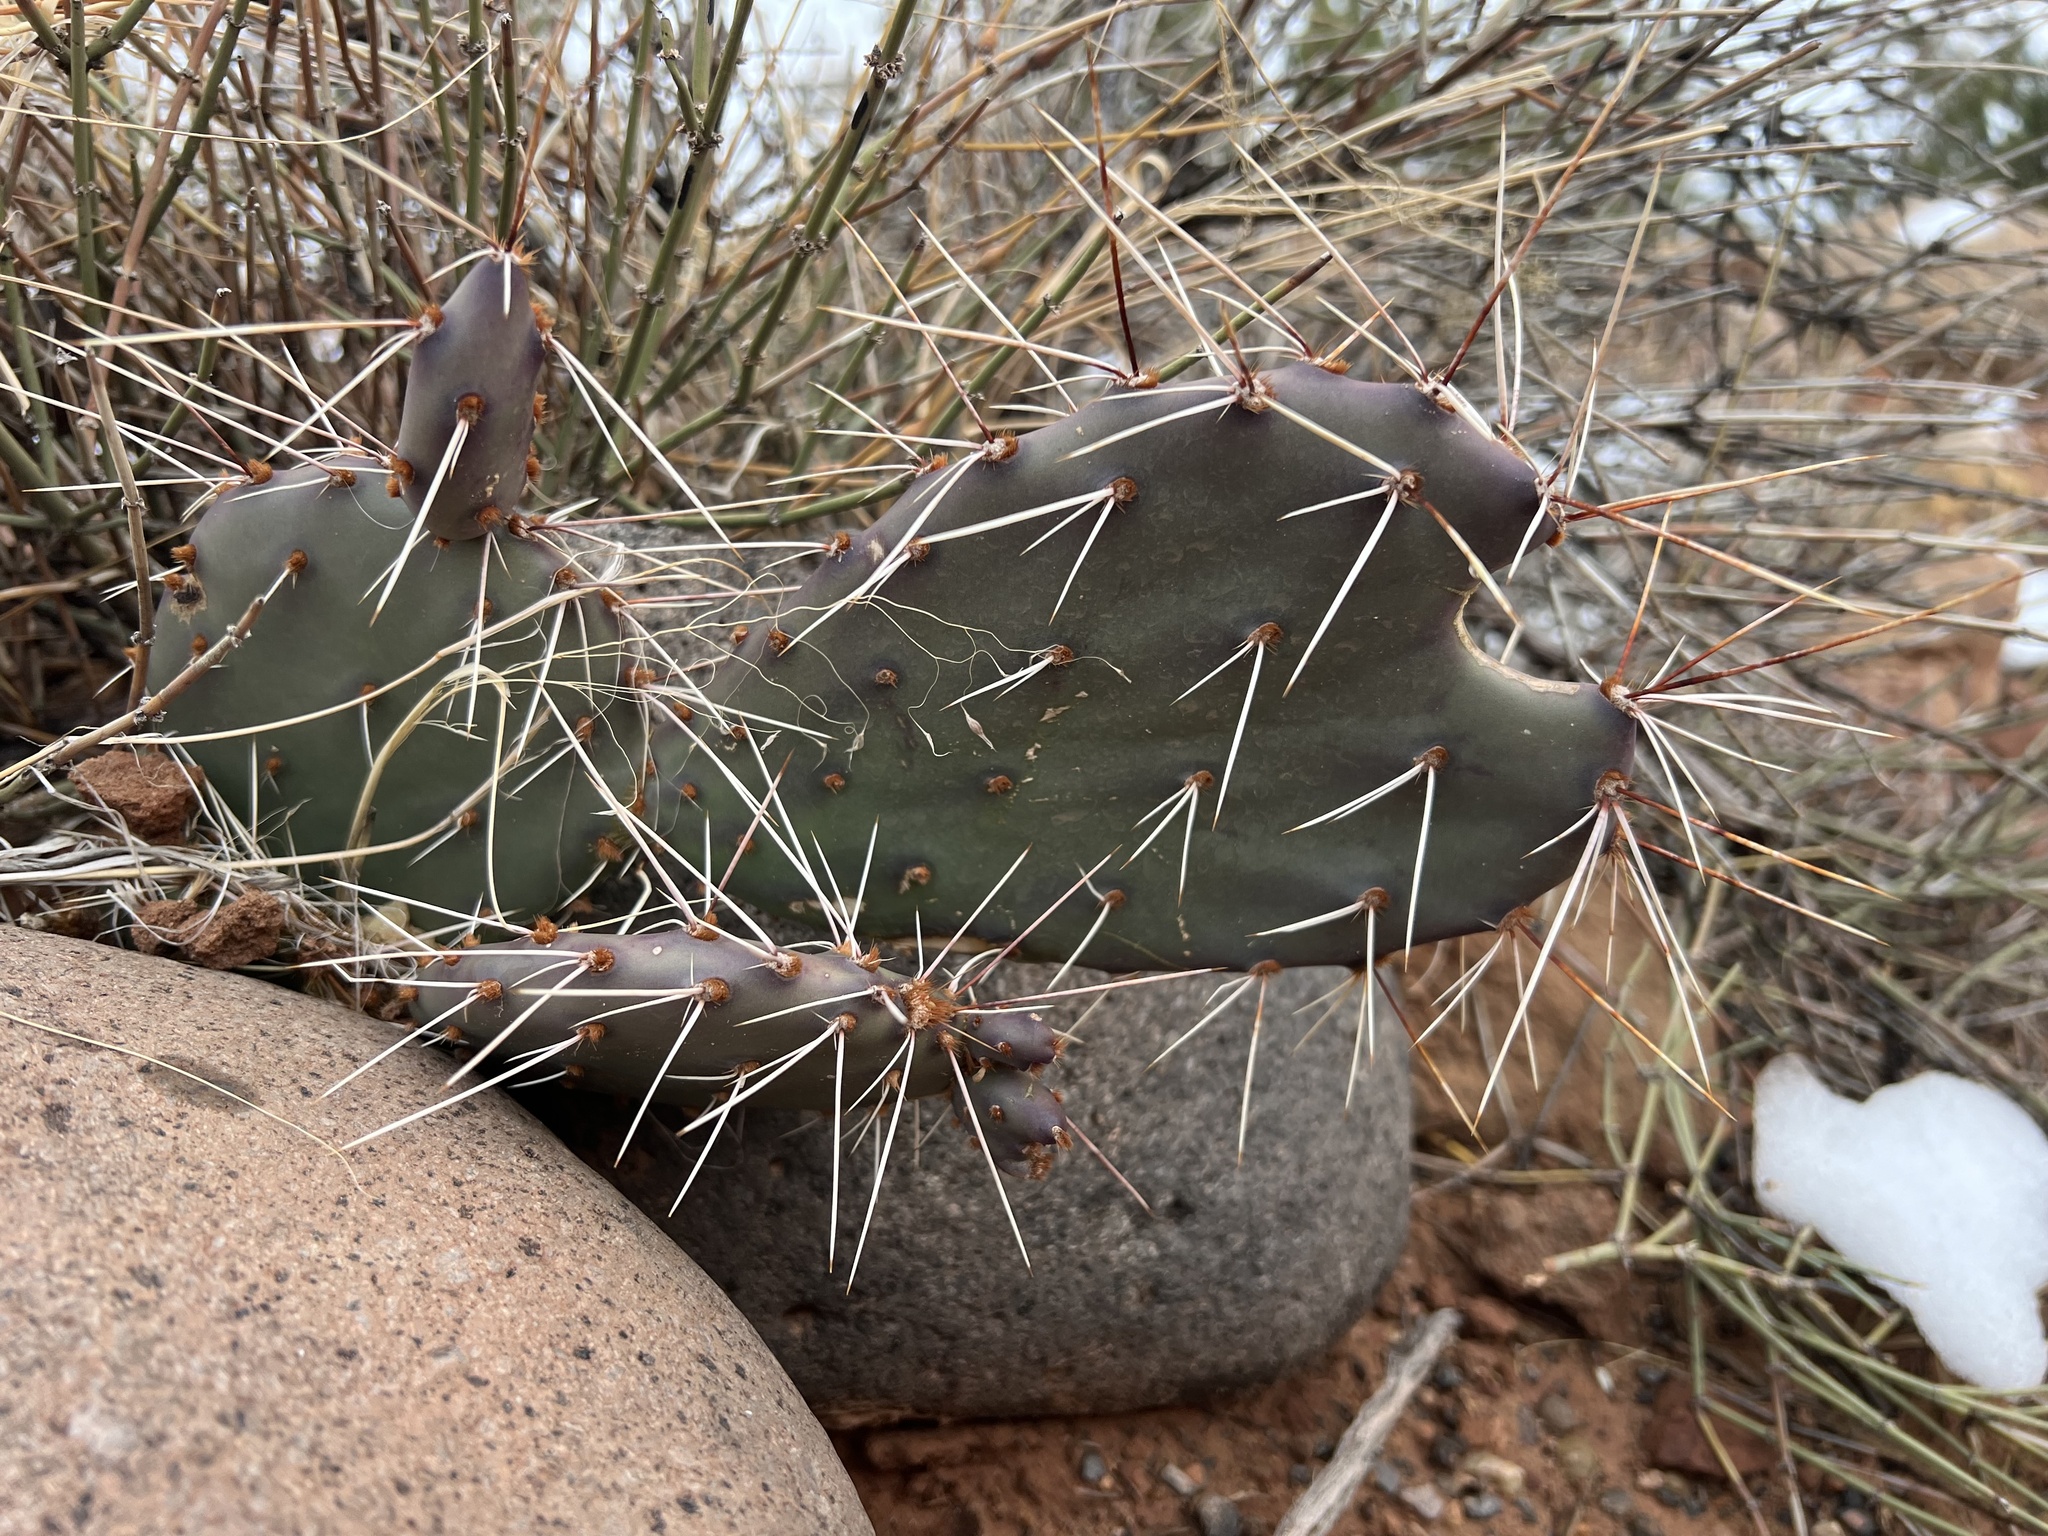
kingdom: Plantae
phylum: Tracheophyta
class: Magnoliopsida
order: Caryophyllales
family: Cactaceae
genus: Opuntia
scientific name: Opuntia phaeacantha
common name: New mexico prickly-pear
